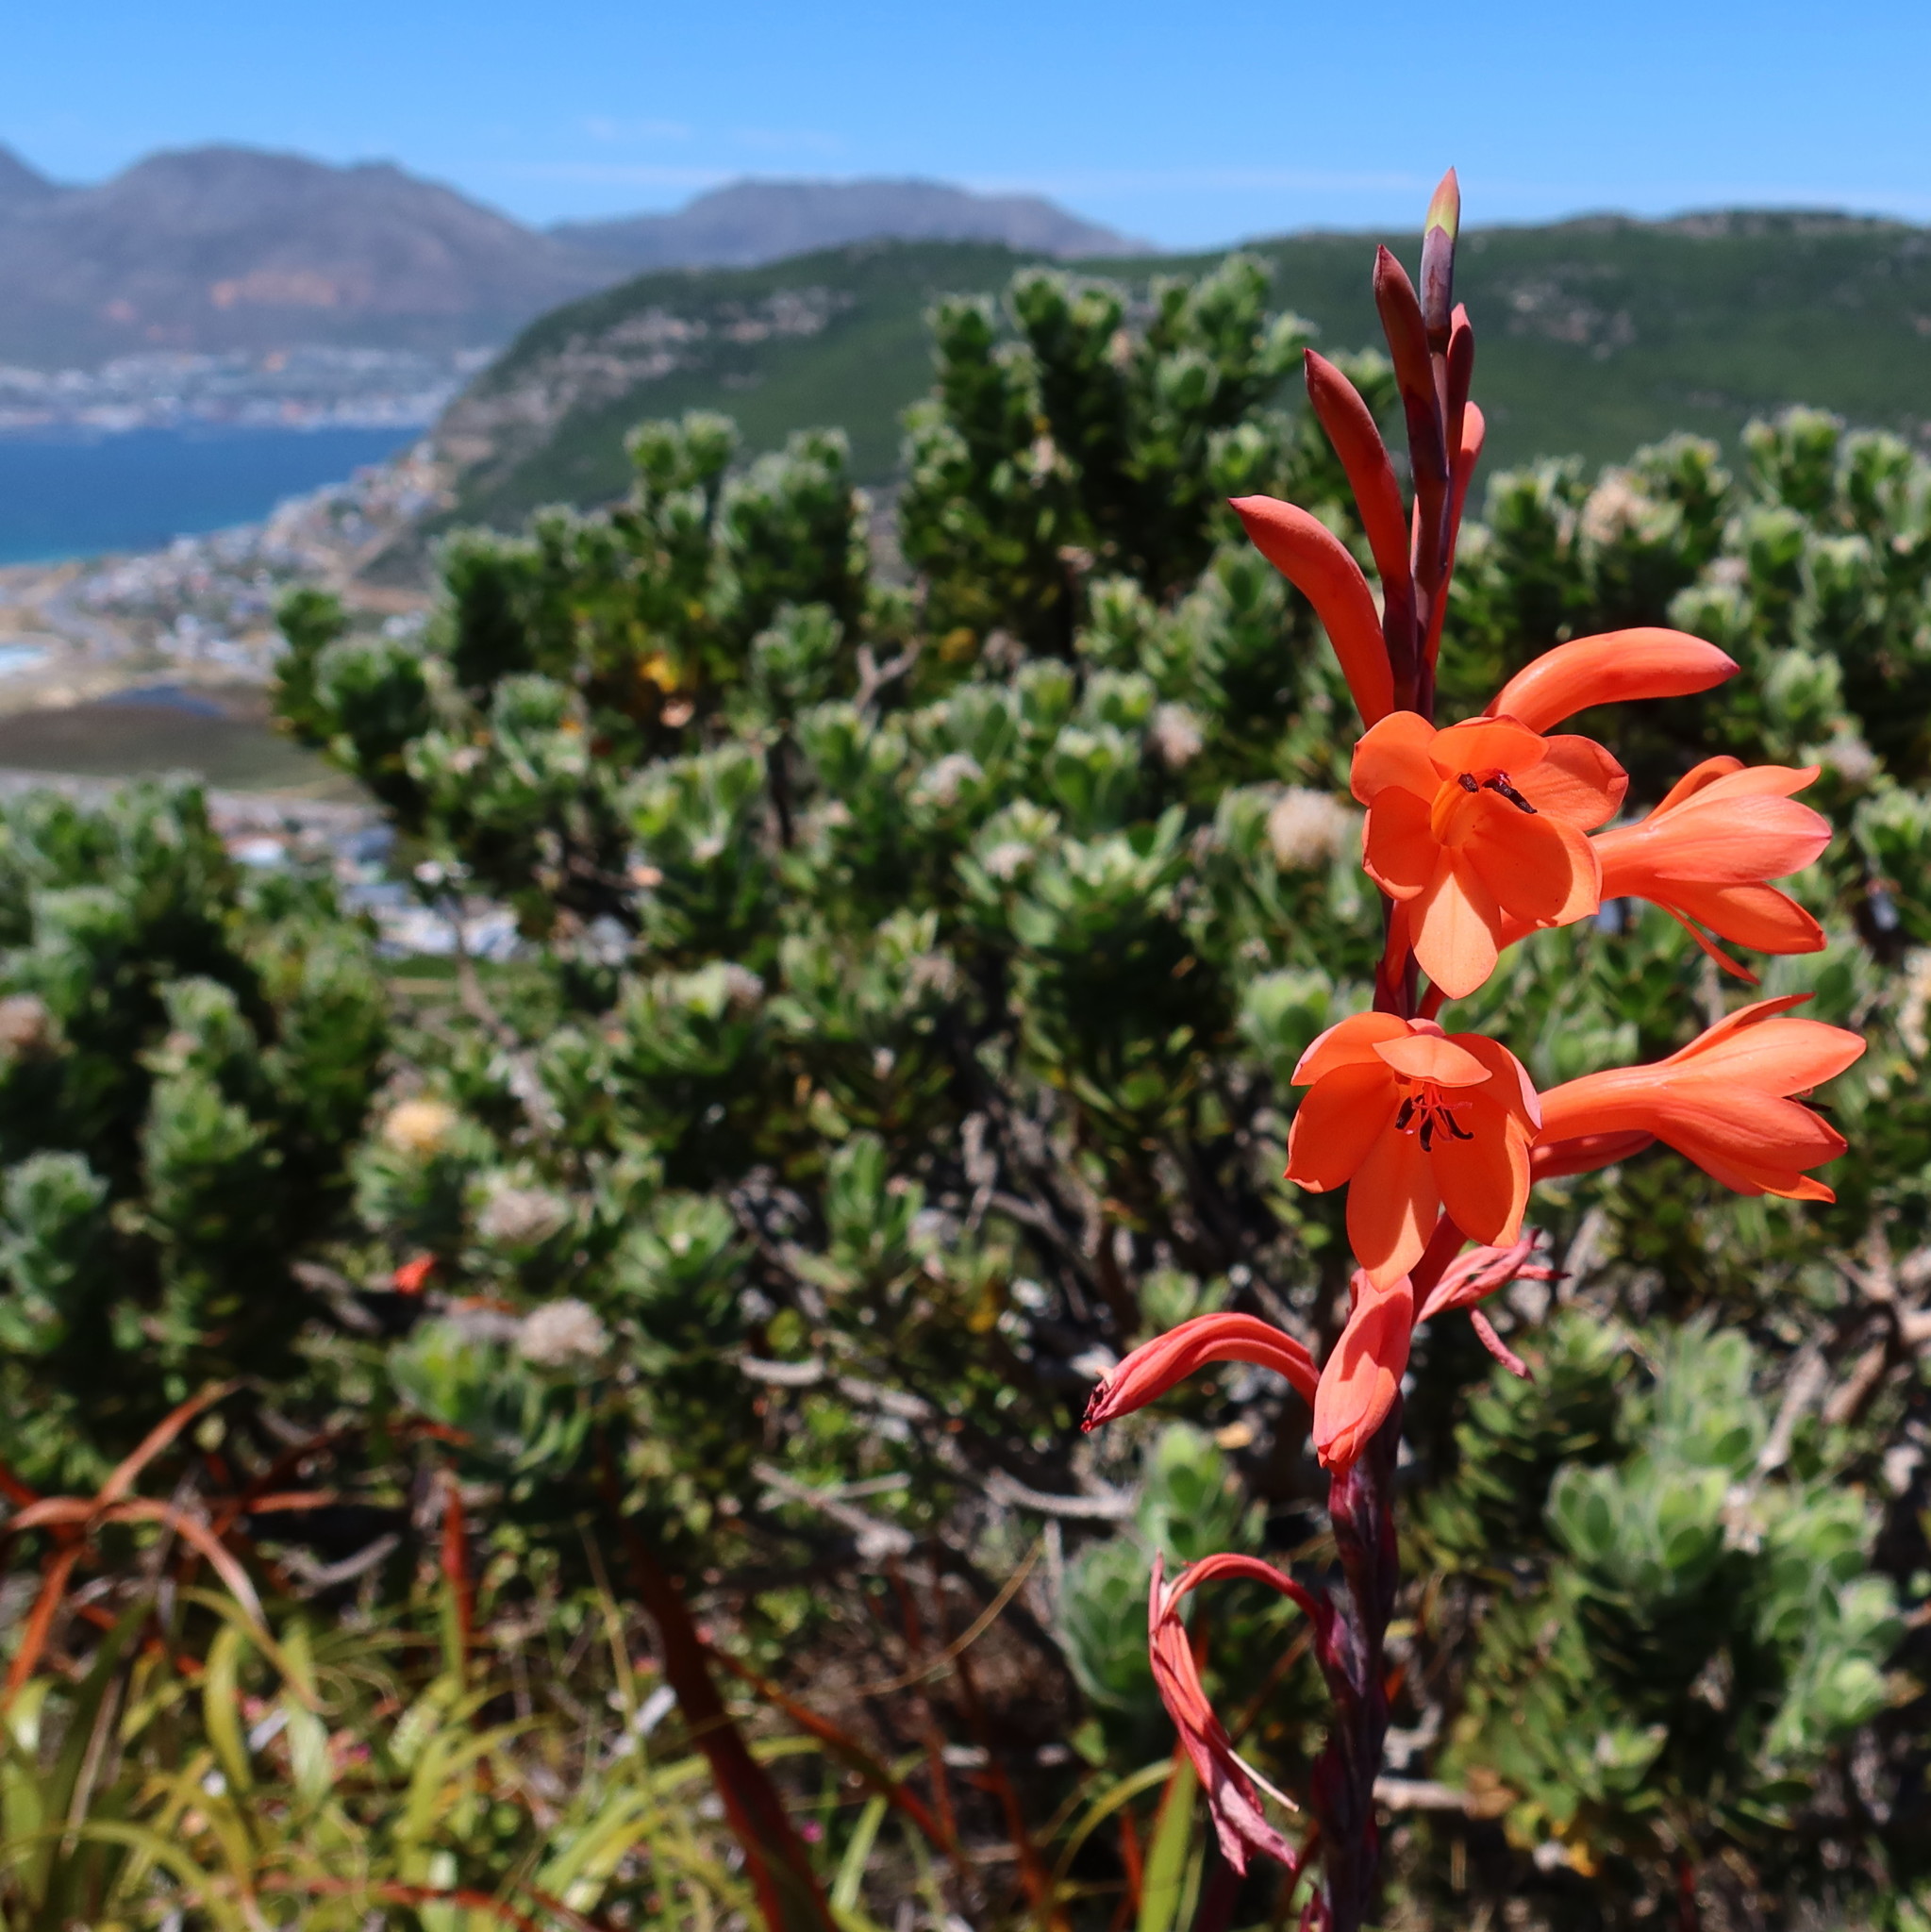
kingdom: Plantae
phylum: Tracheophyta
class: Liliopsida
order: Asparagales
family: Iridaceae
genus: Watsonia
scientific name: Watsonia tabularis
